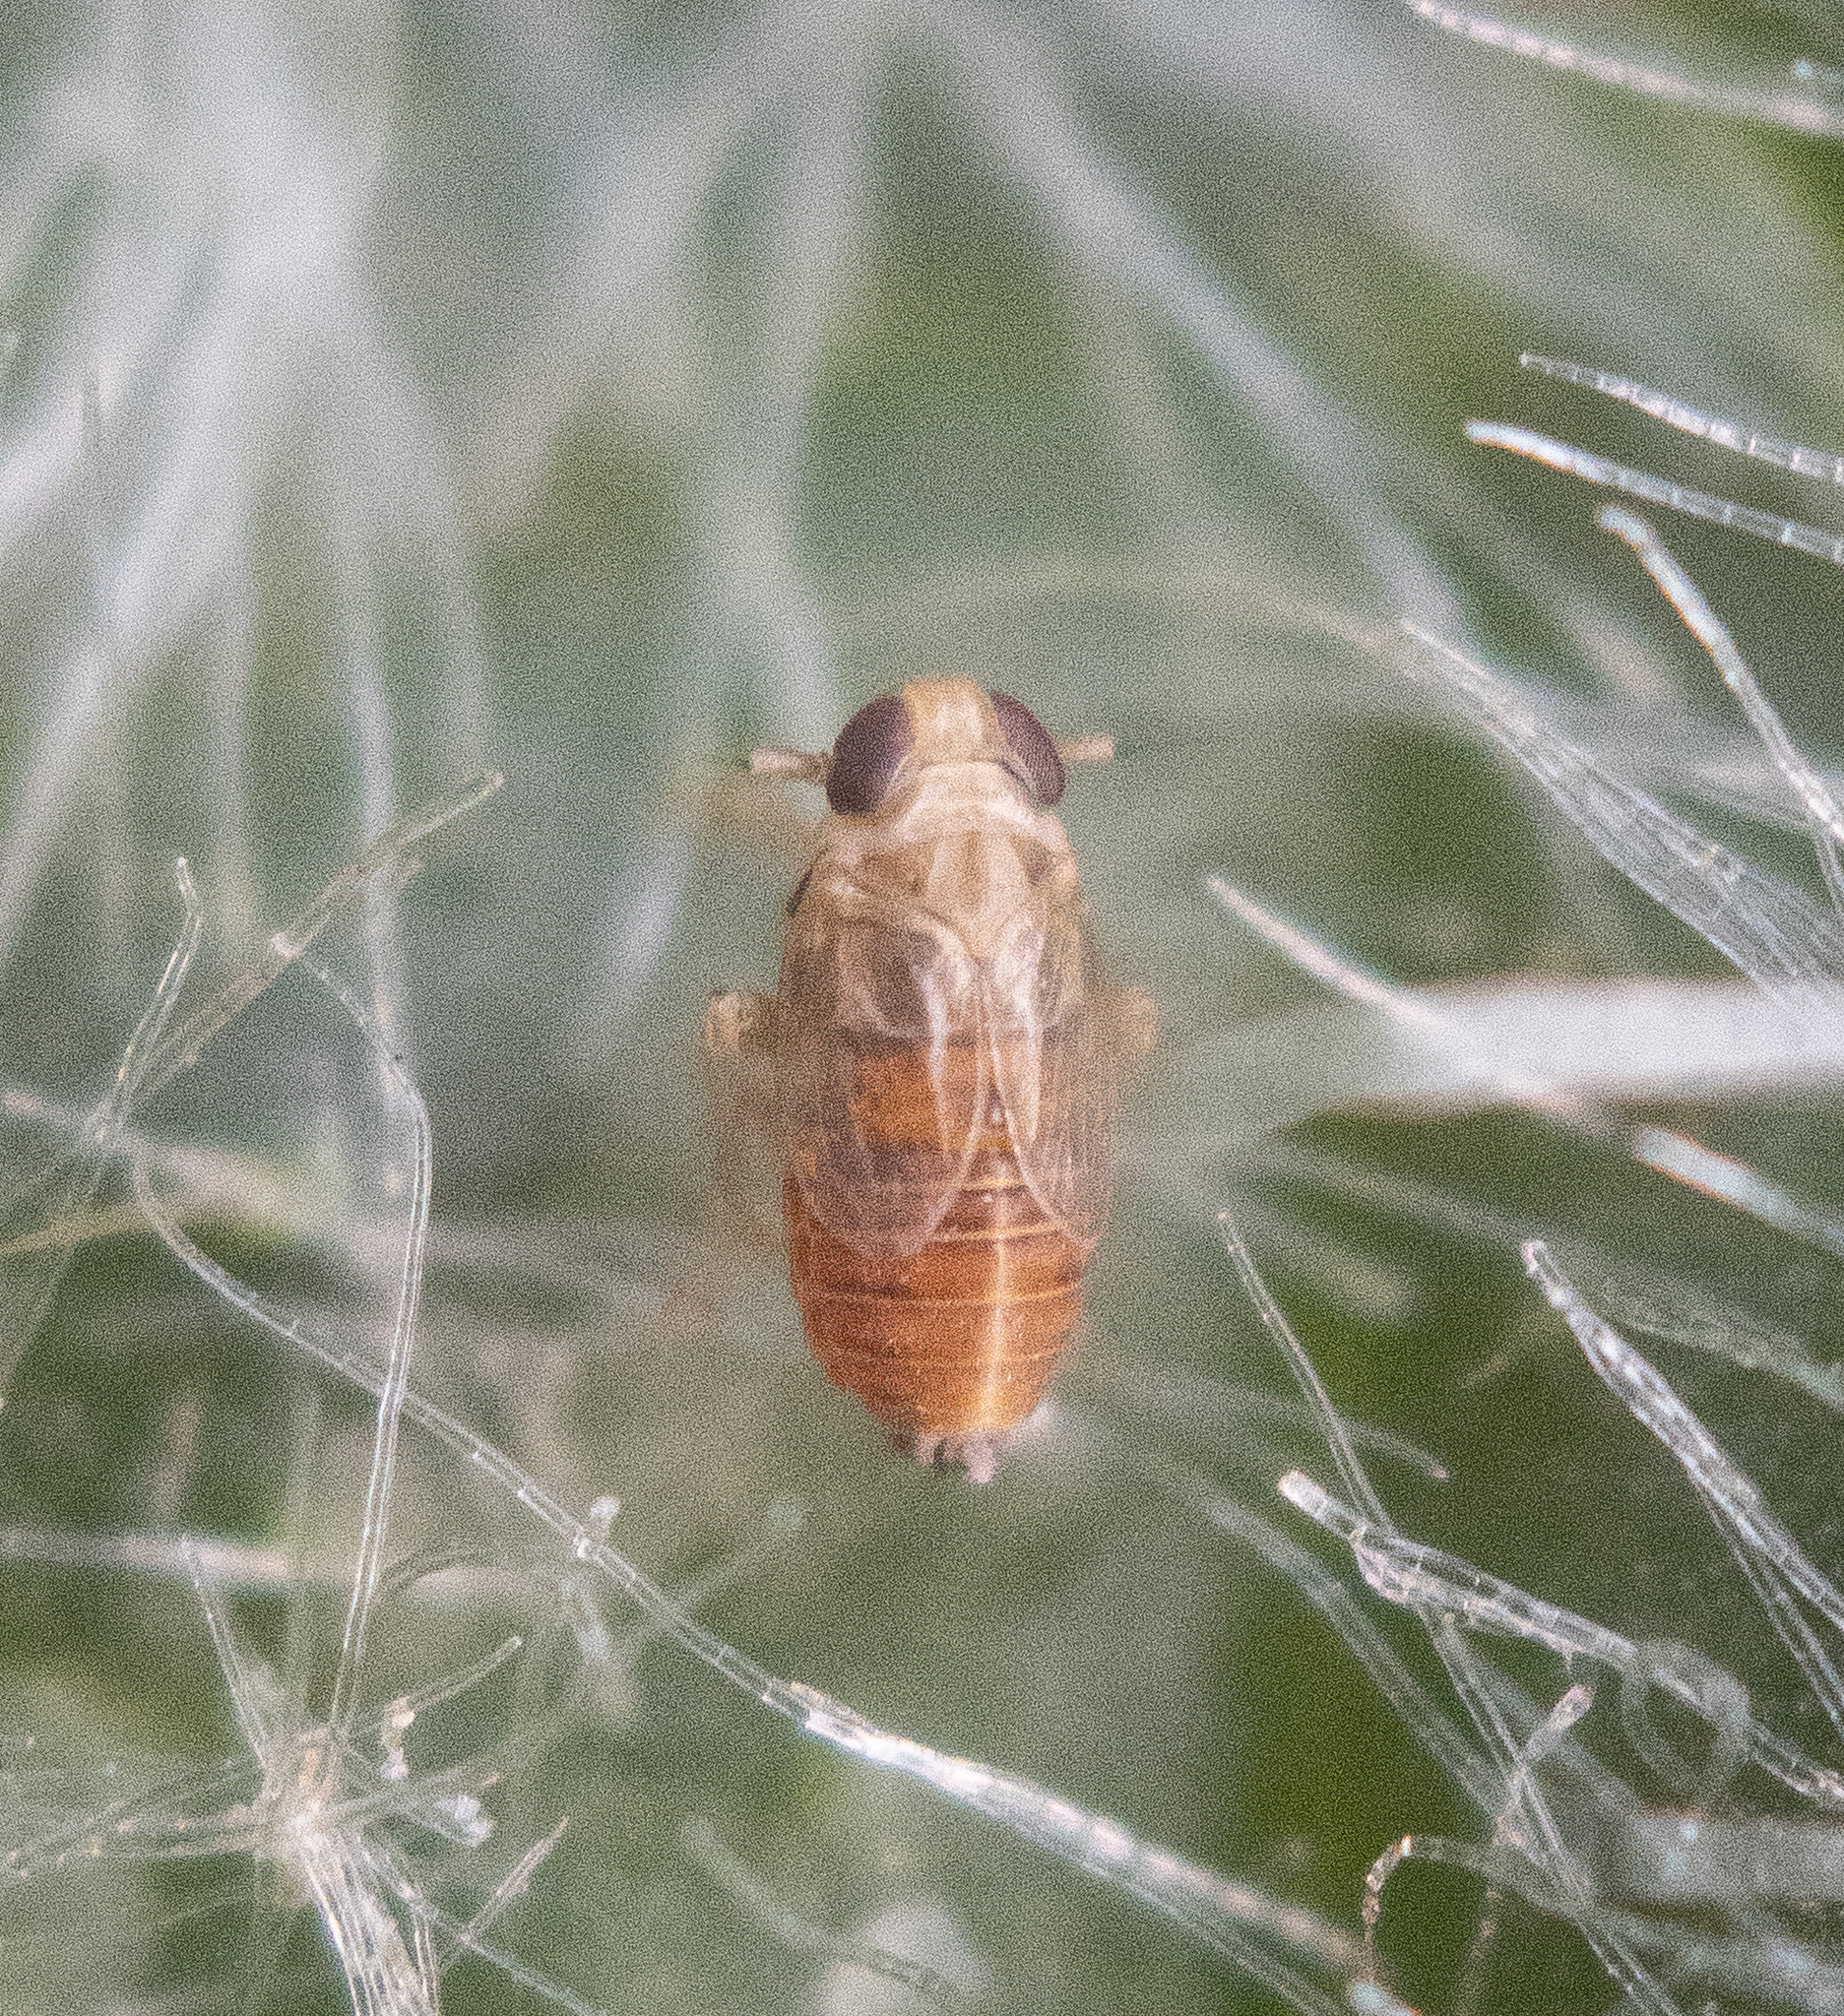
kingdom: Animalia
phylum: Arthropoda
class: Insecta
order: Hemiptera
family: Delphacidae
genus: Delphacodes
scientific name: Delphacodes atralabis
